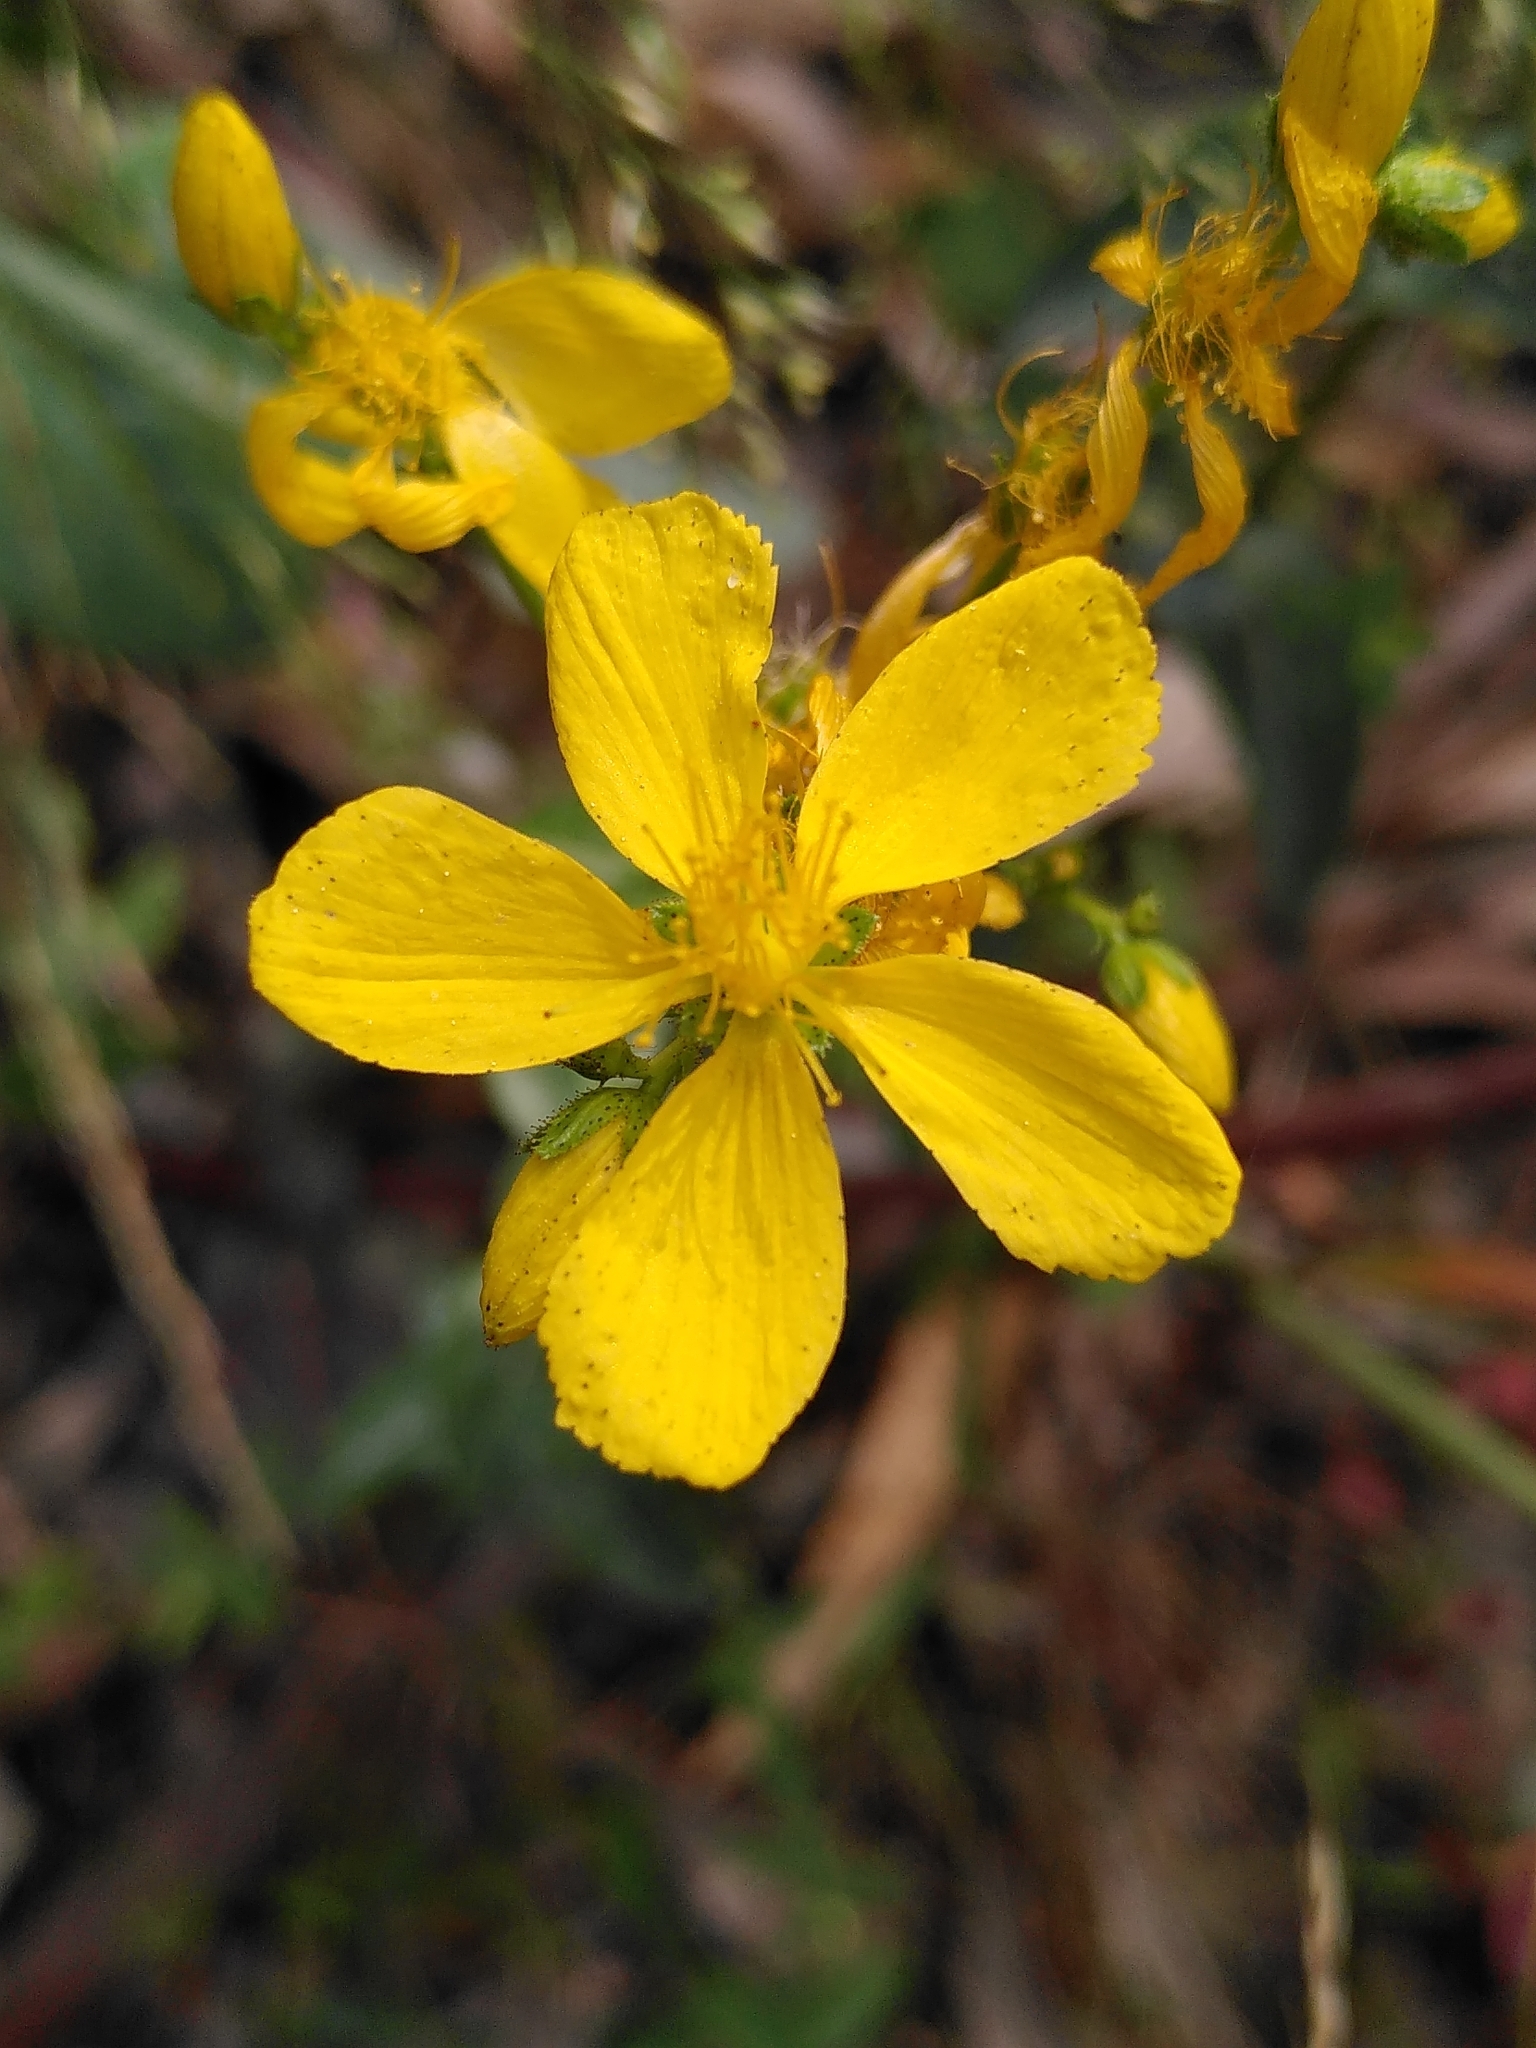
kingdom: Plantae
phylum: Tracheophyta
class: Magnoliopsida
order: Malpighiales
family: Hypericaceae
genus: Hypericum
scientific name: Hypericum perfoliatum
